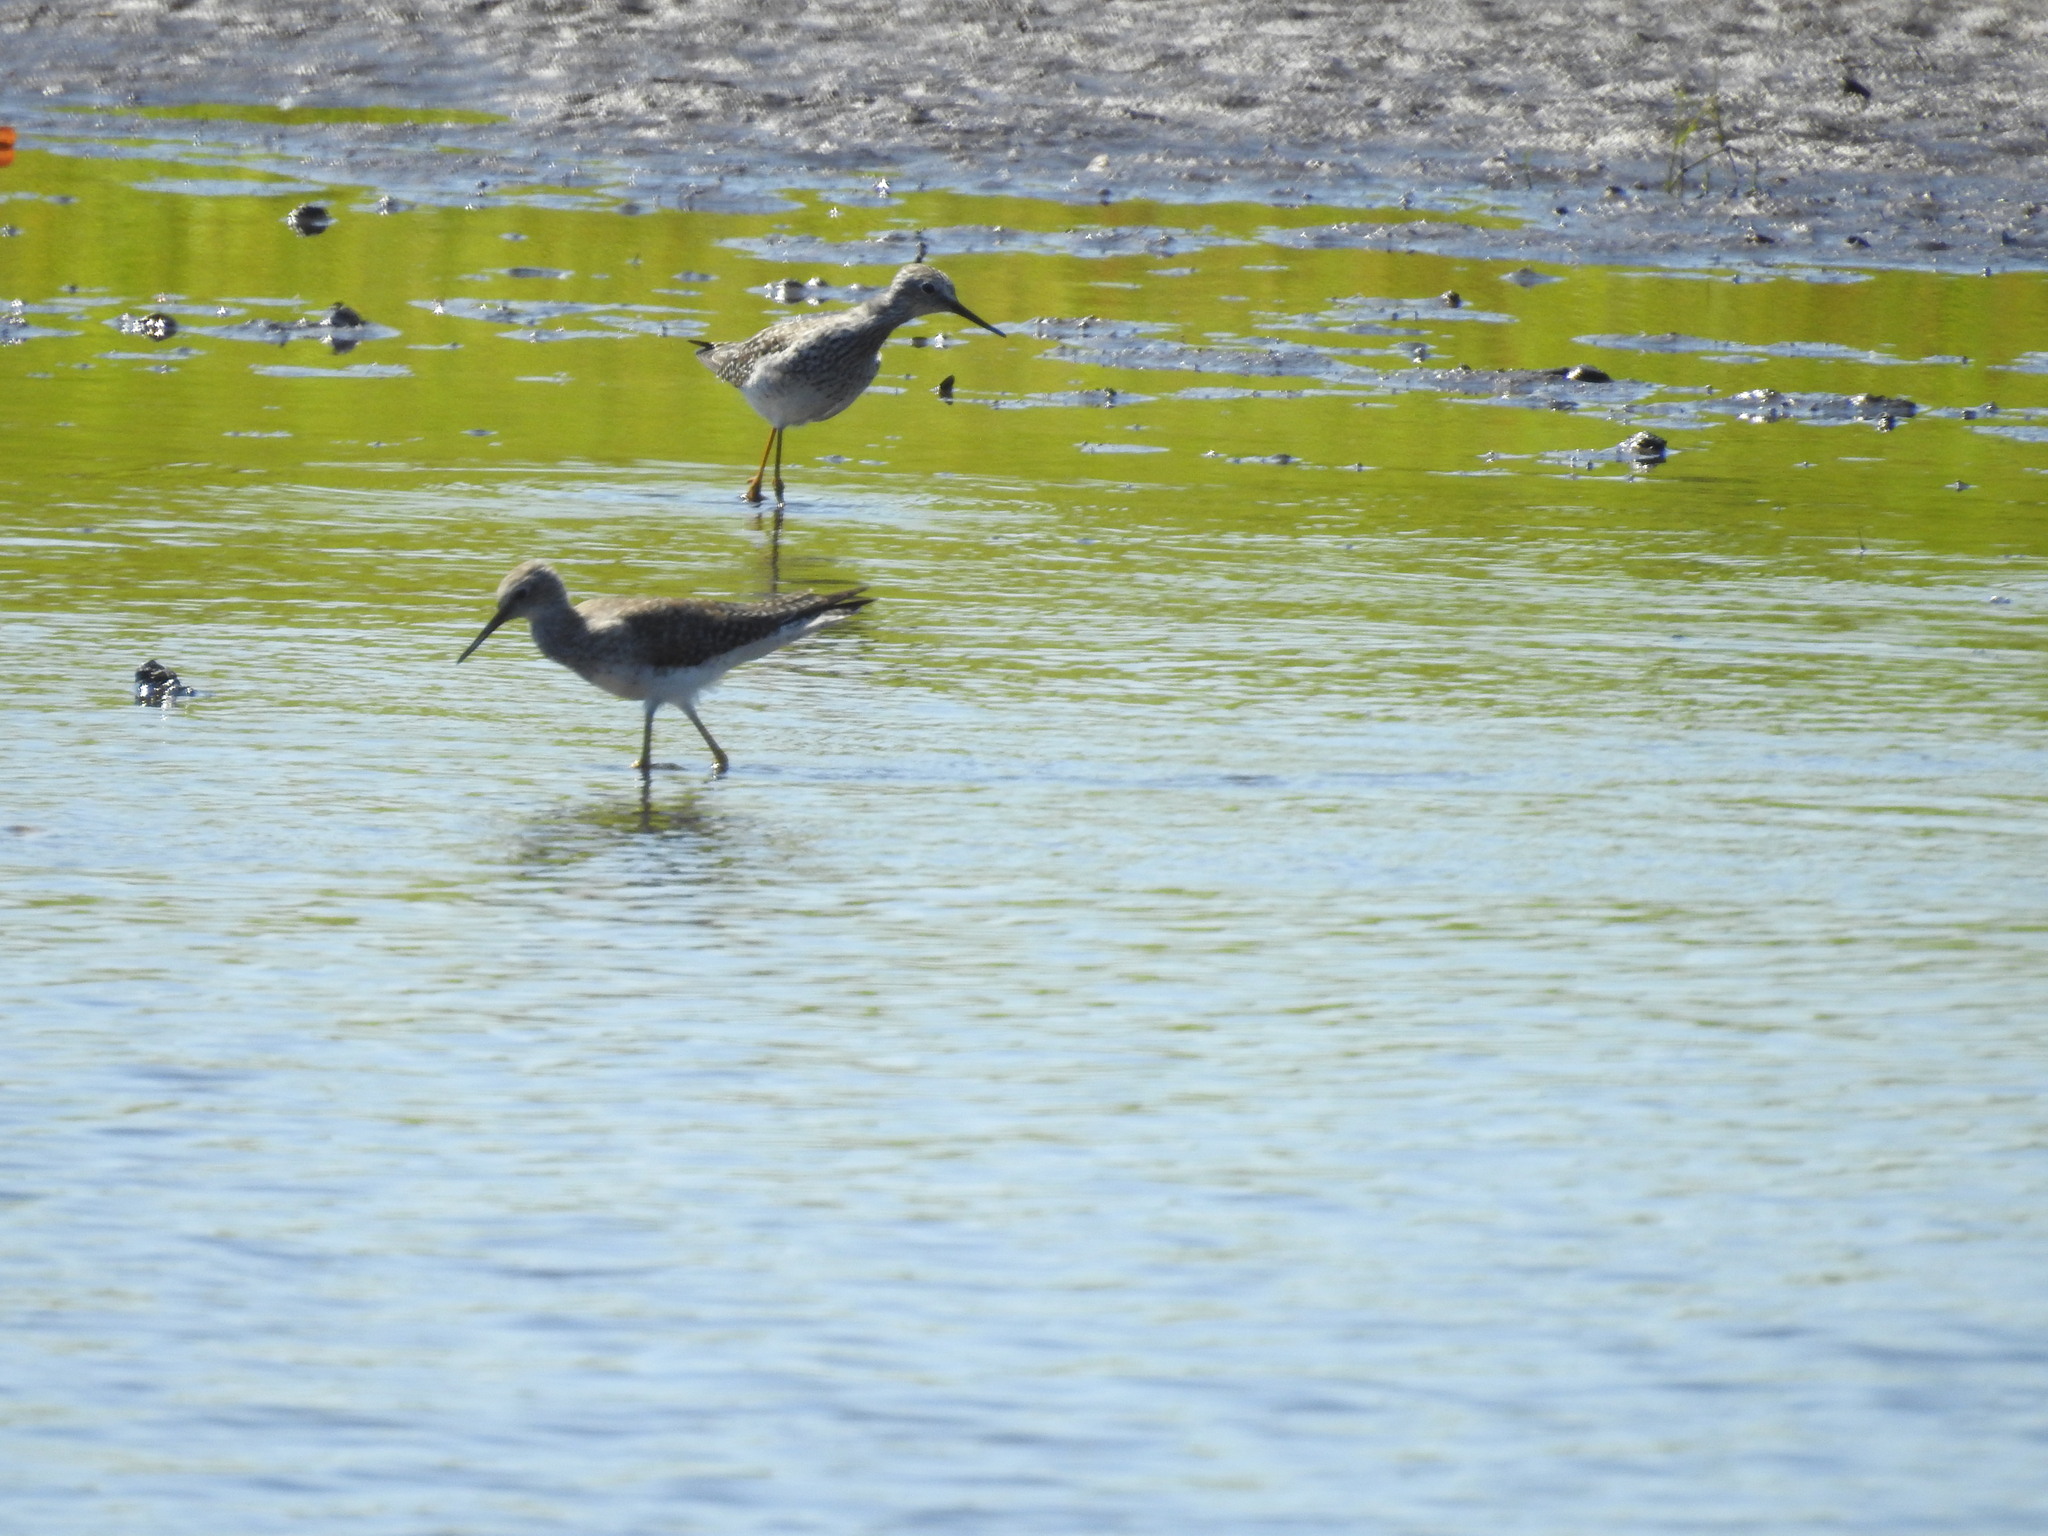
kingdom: Animalia
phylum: Chordata
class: Aves
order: Charadriiformes
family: Scolopacidae
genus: Tringa
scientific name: Tringa flavipes
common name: Lesser yellowlegs
